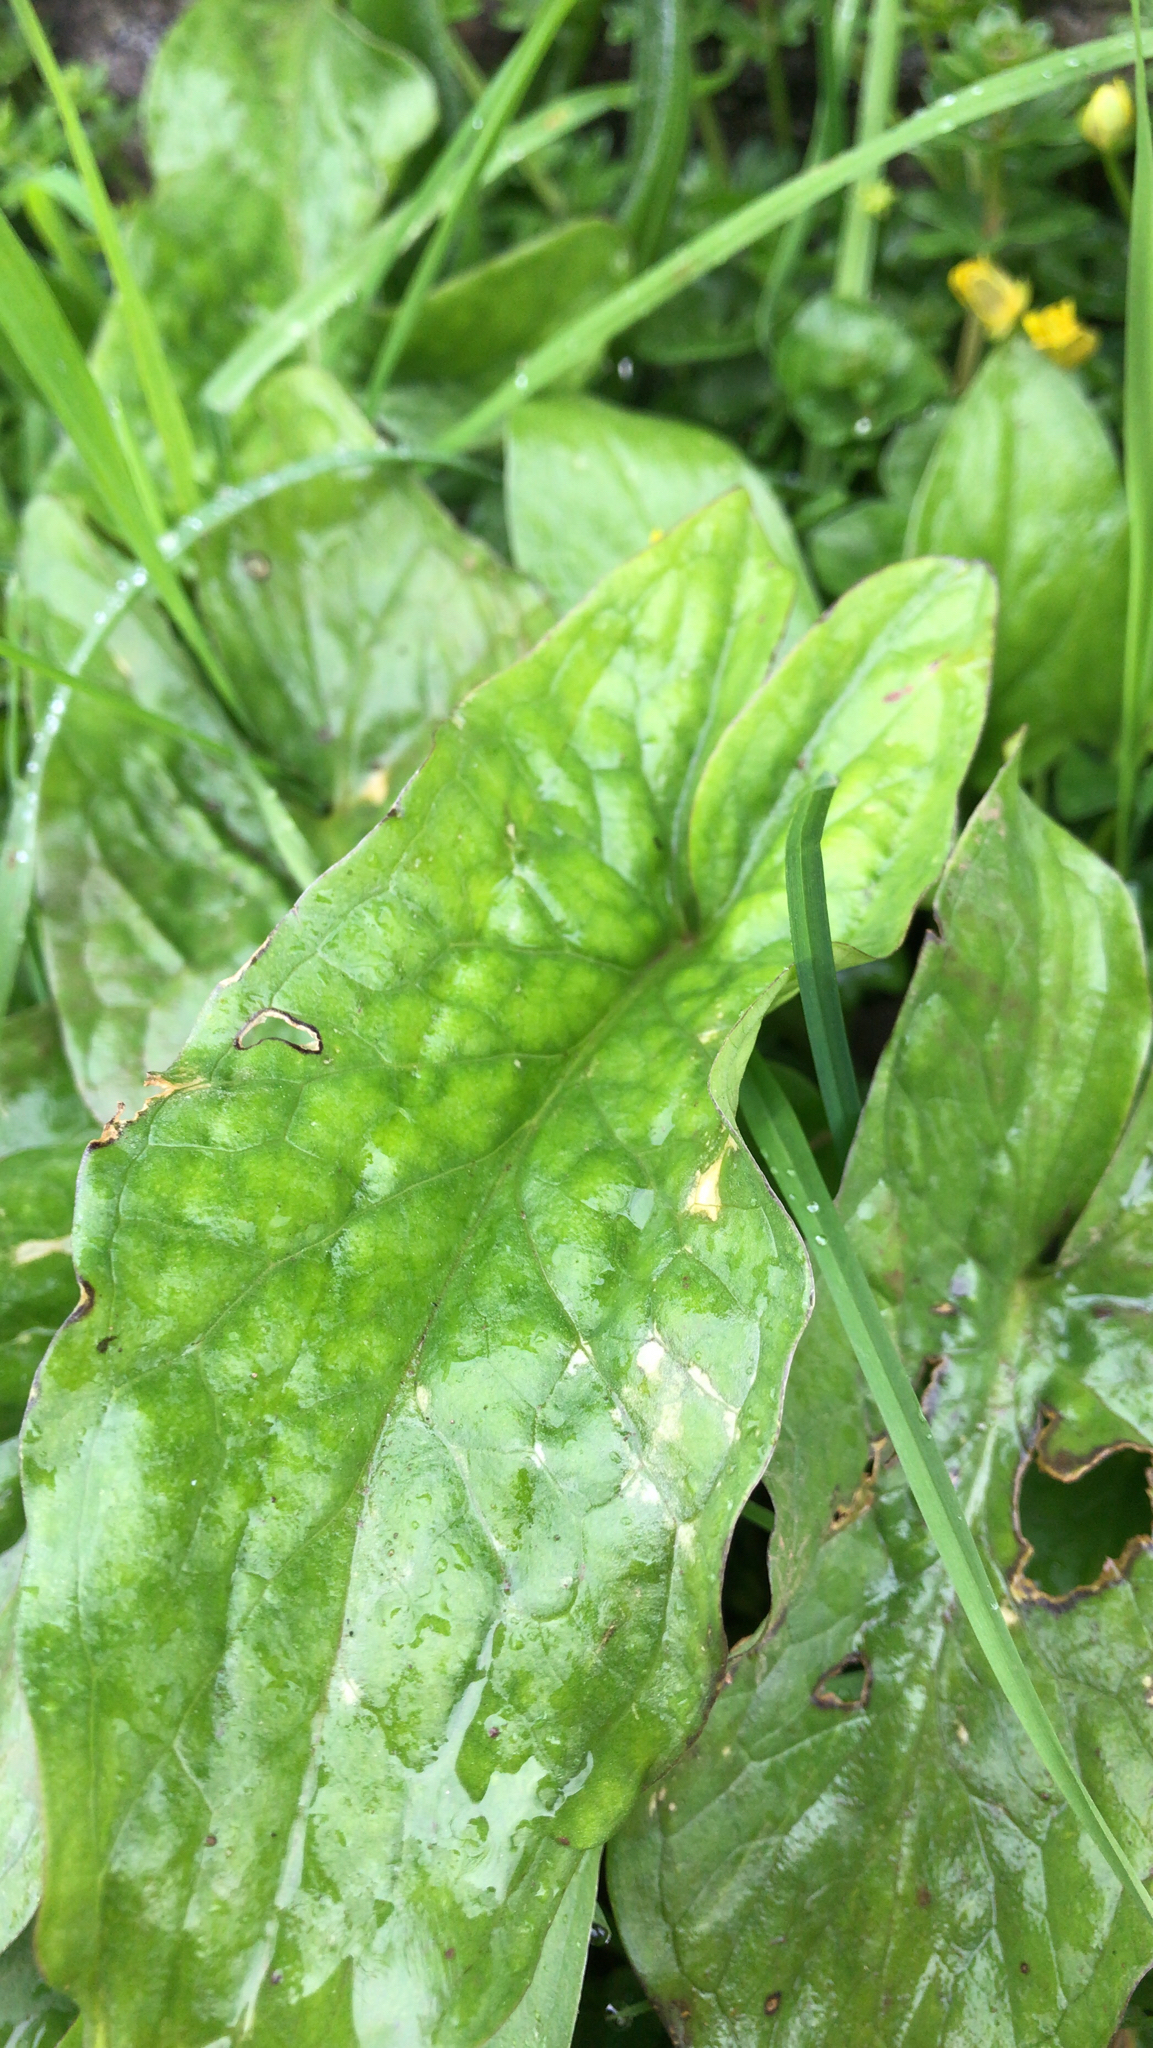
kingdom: Plantae
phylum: Tracheophyta
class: Liliopsida
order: Alismatales
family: Araceae
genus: Arum
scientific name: Arum maculatum
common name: Lords-and-ladies
